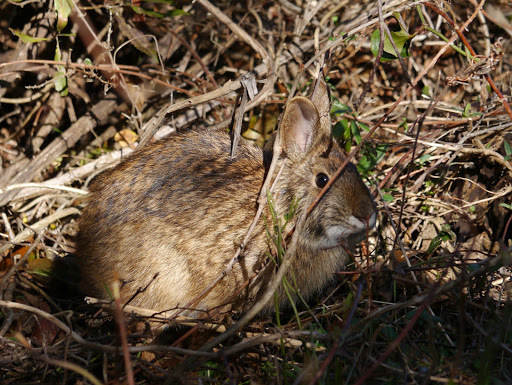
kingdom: Animalia
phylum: Chordata
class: Mammalia
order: Lagomorpha
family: Leporidae
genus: Sylvilagus
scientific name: Sylvilagus palustris
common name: Marsh rabbit
